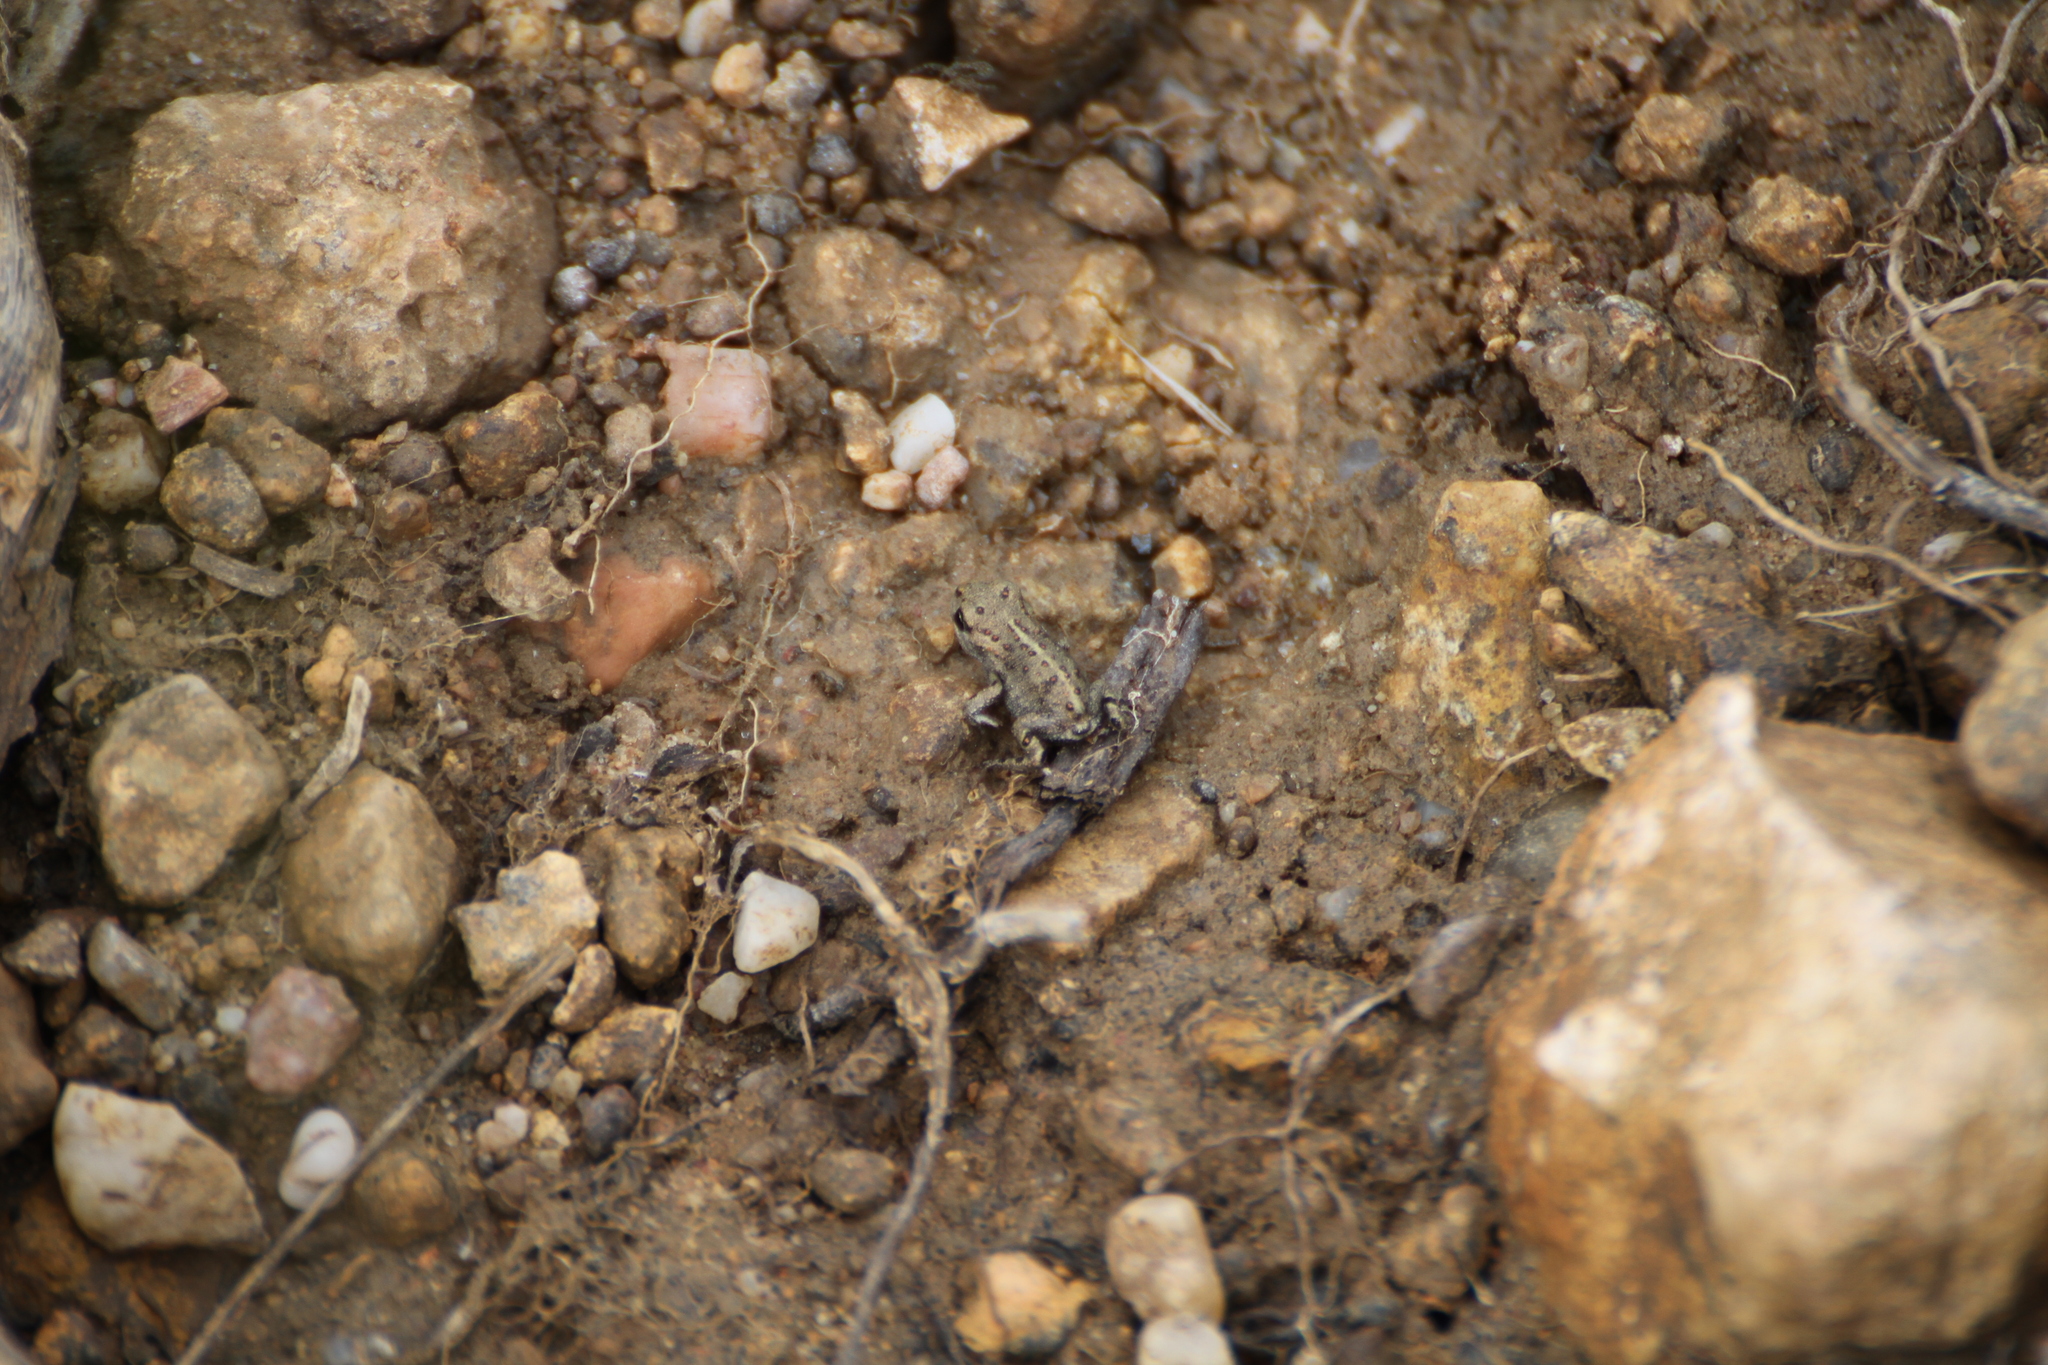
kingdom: Animalia
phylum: Chordata
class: Amphibia
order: Anura
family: Bufonidae
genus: Epidalea
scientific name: Epidalea calamita
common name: Natterjack toad
